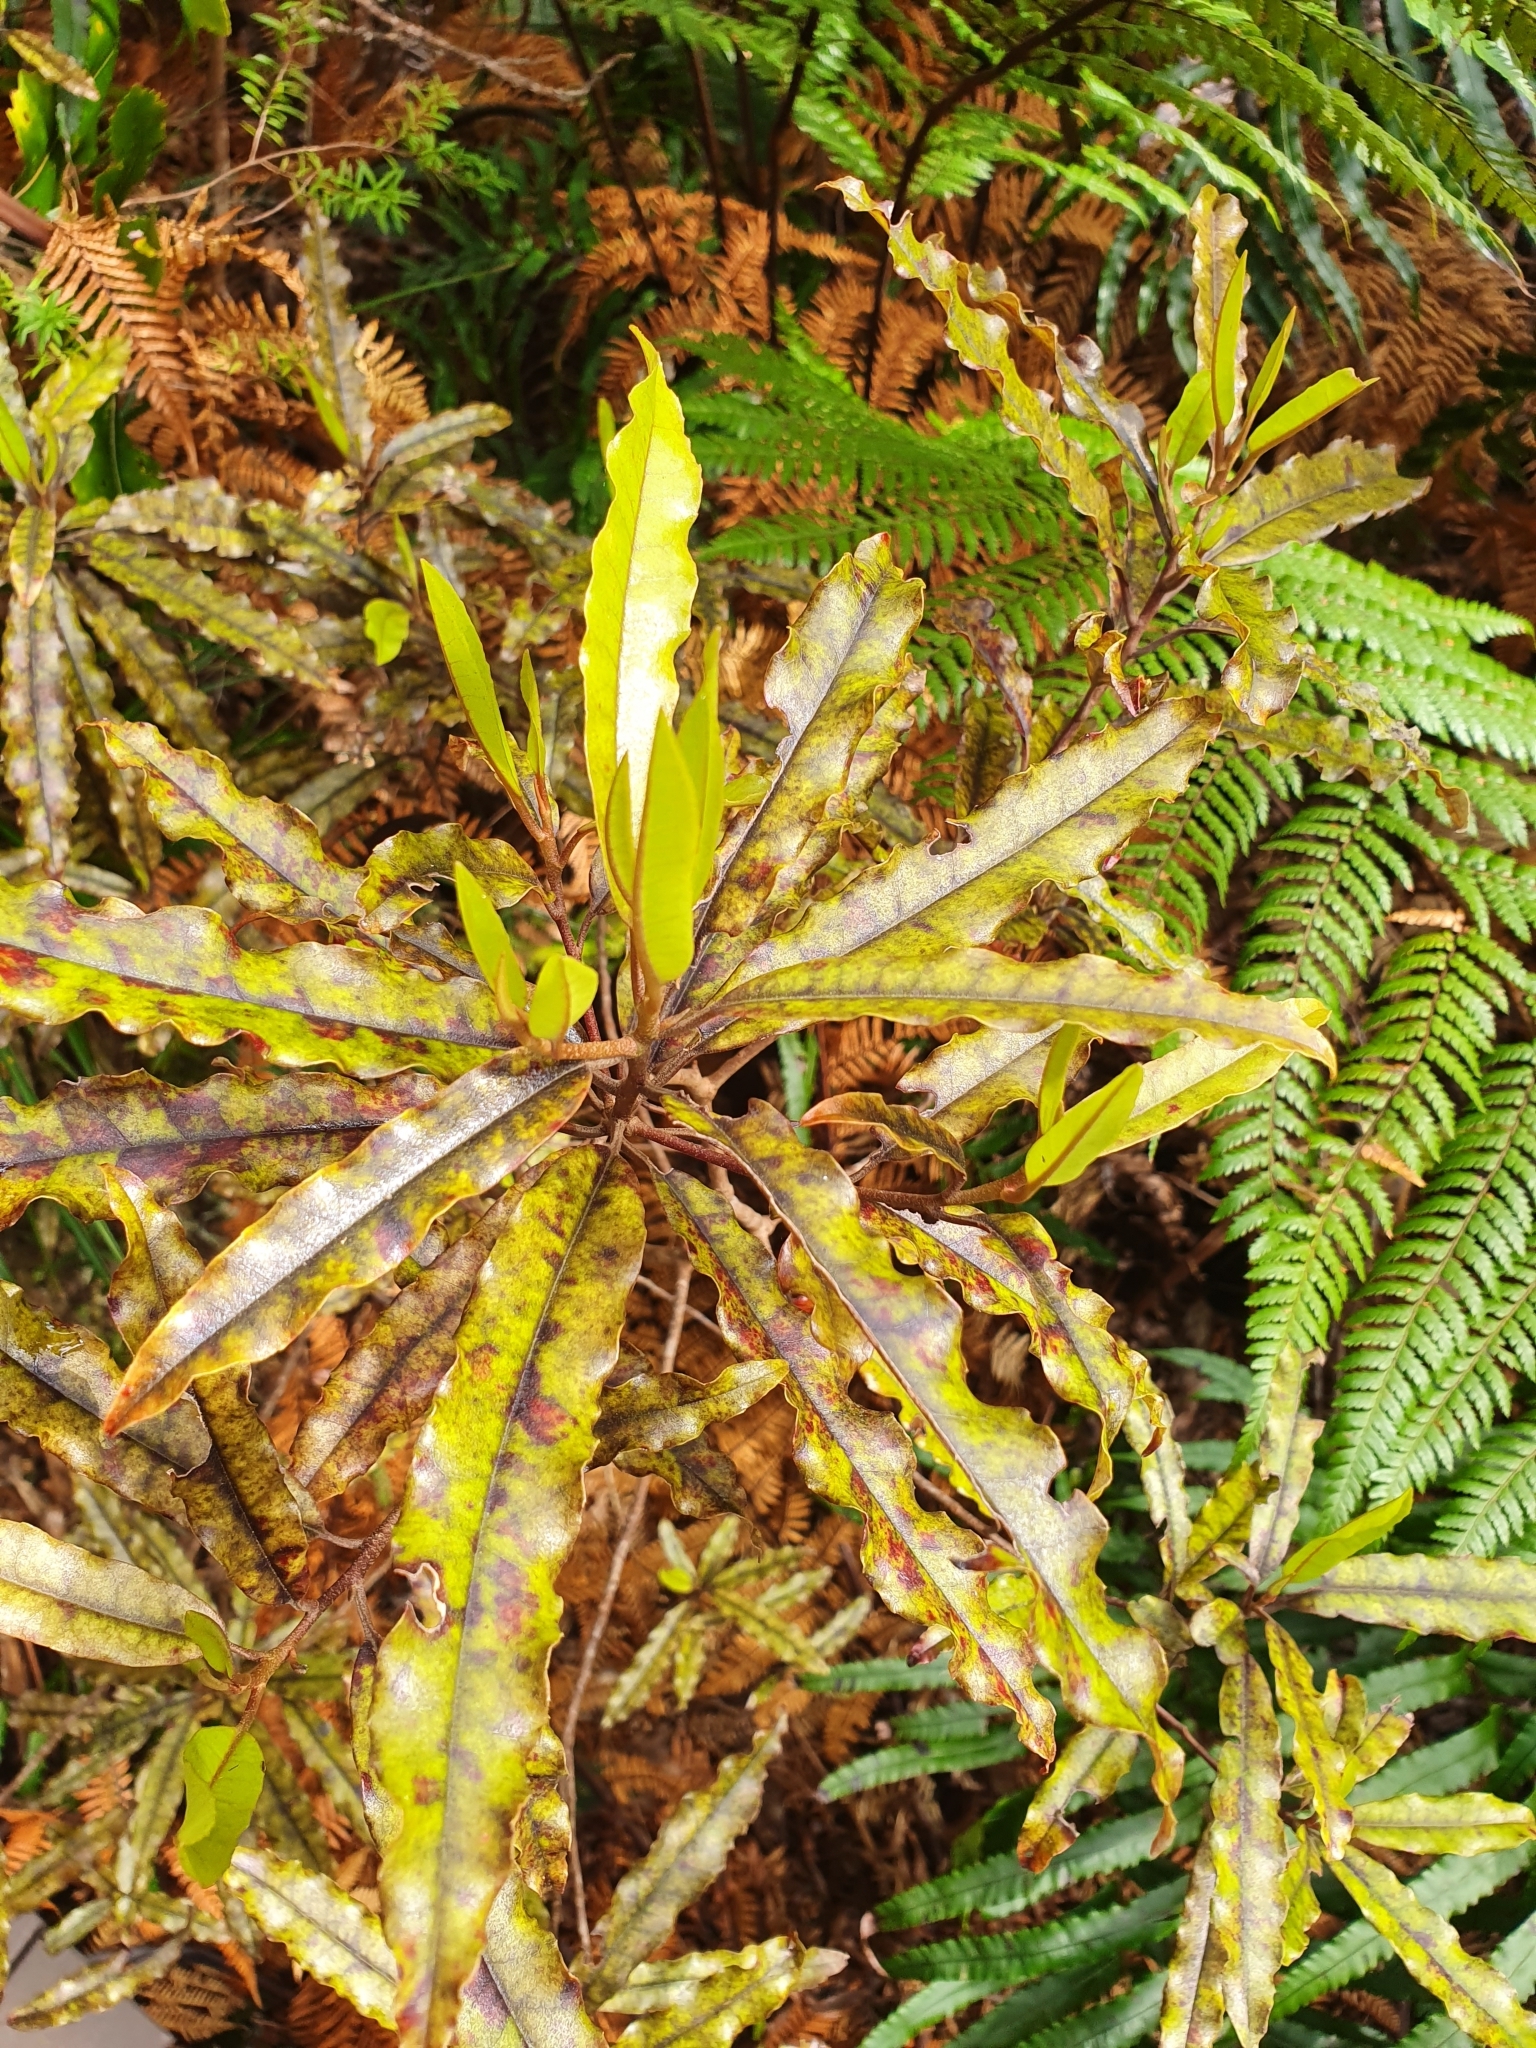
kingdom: Plantae
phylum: Tracheophyta
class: Magnoliopsida
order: Paracryphiales
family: Paracryphiaceae
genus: Quintinia
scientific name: Quintinia serrata
